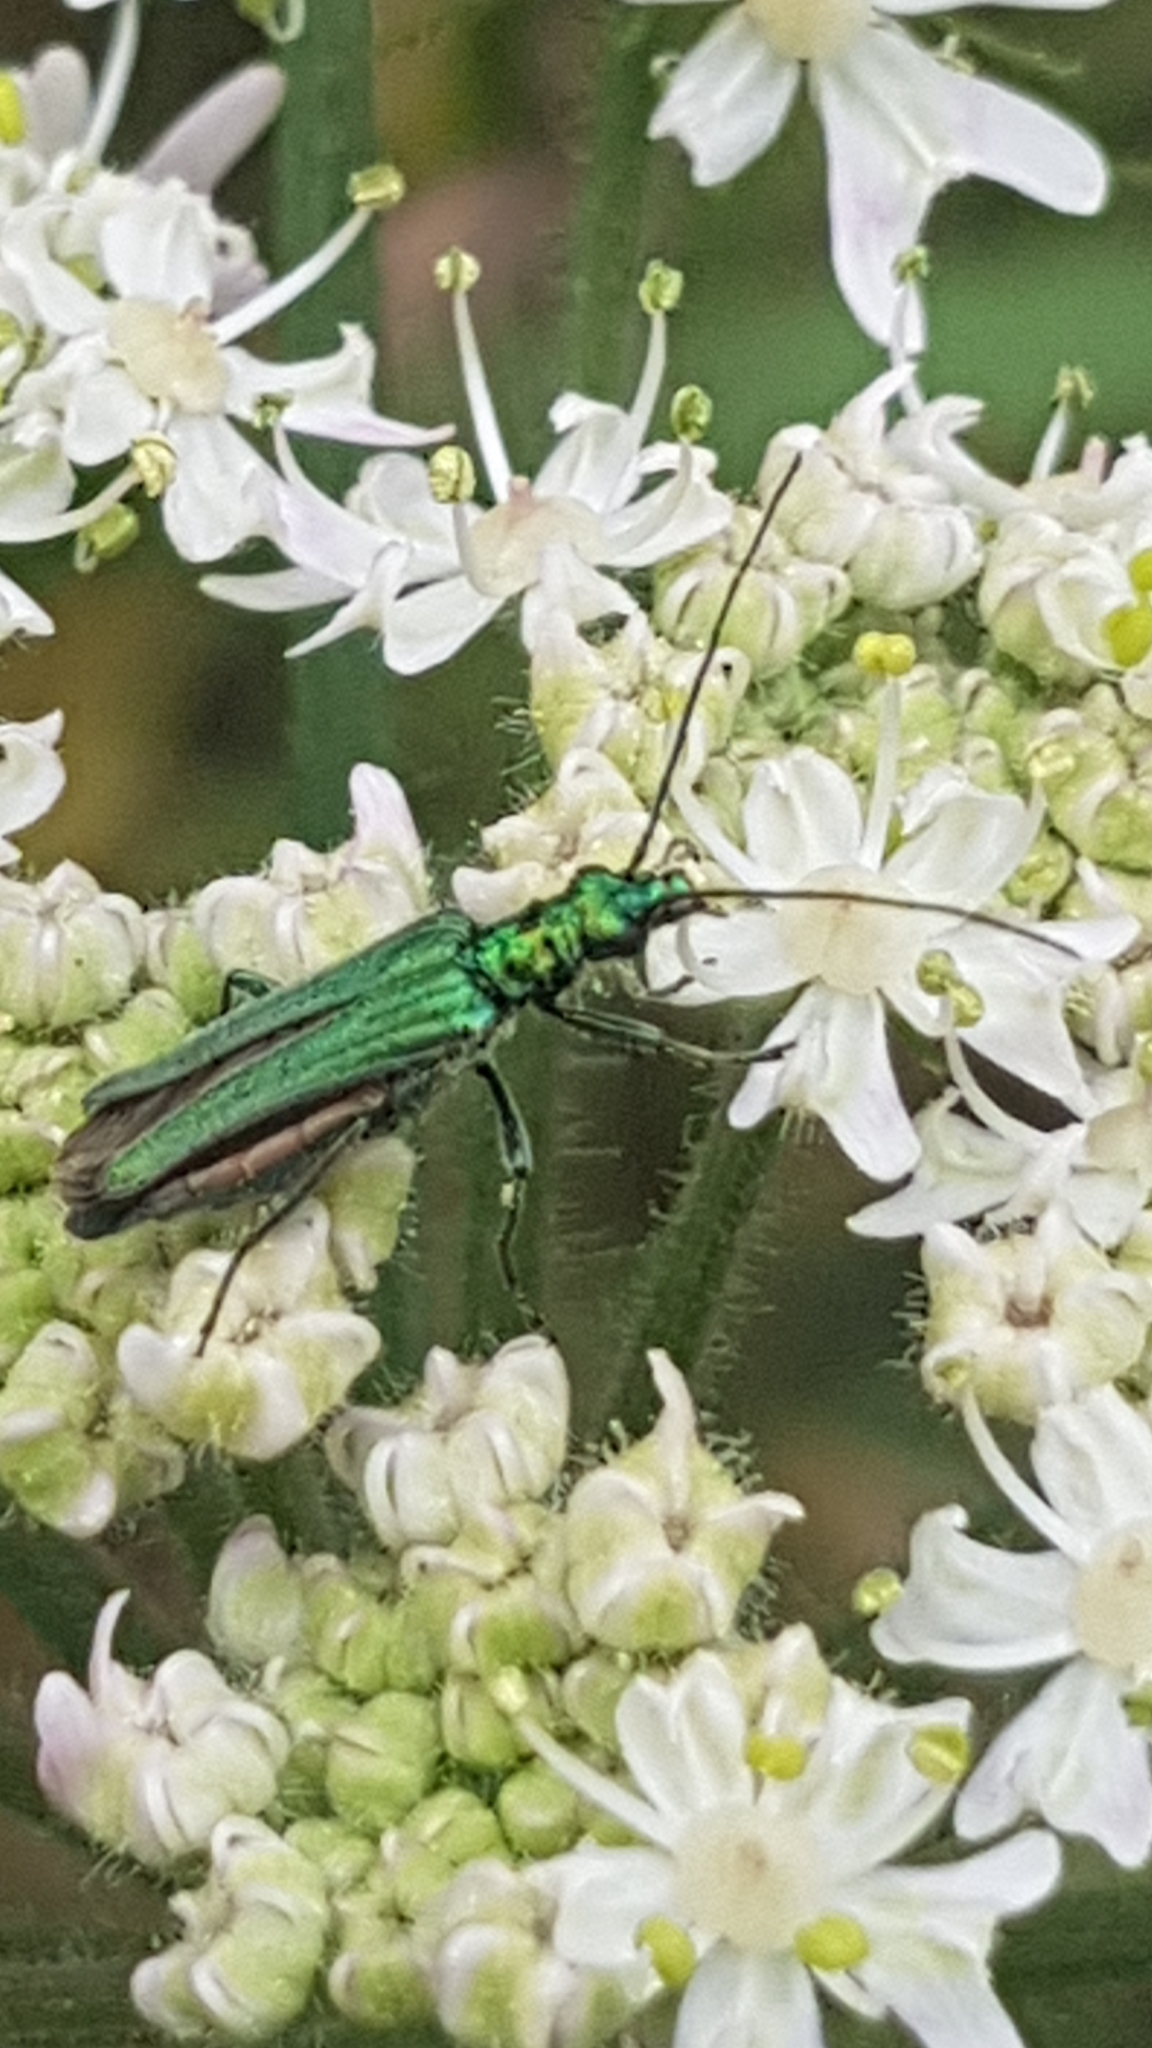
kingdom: Animalia
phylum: Arthropoda
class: Insecta
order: Coleoptera
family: Oedemeridae
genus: Oedemera
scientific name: Oedemera nobilis
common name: Swollen-thighed beetle
